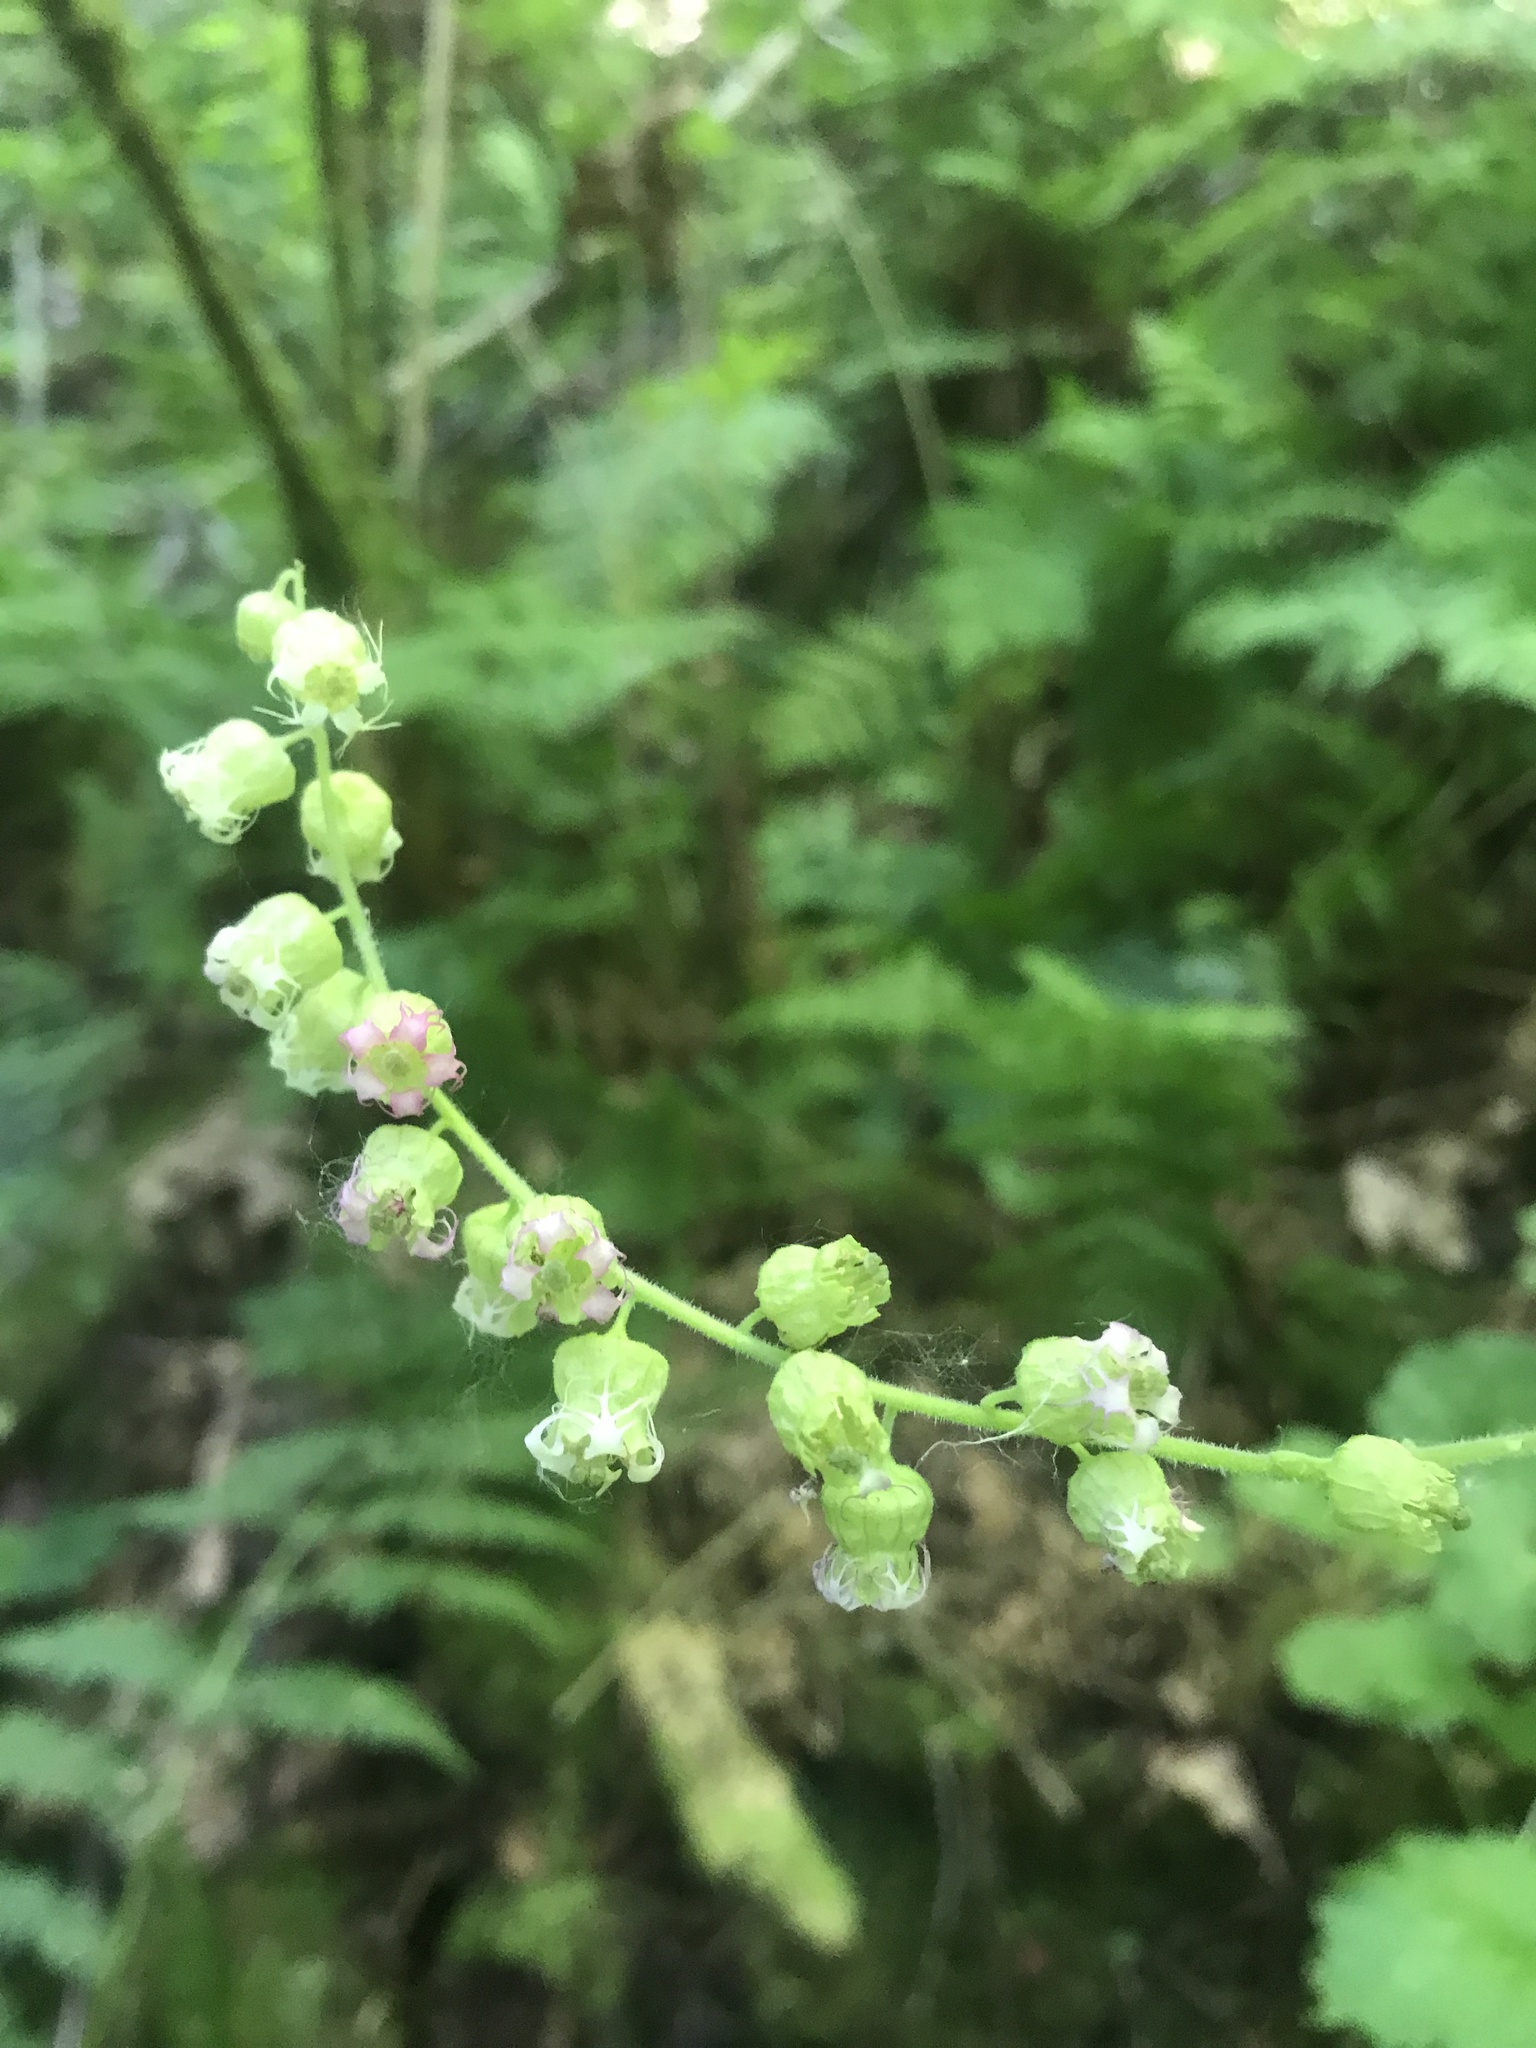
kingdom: Plantae
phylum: Tracheophyta
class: Magnoliopsida
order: Saxifragales
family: Saxifragaceae
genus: Tellima
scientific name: Tellima grandiflora
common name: Fringecups
